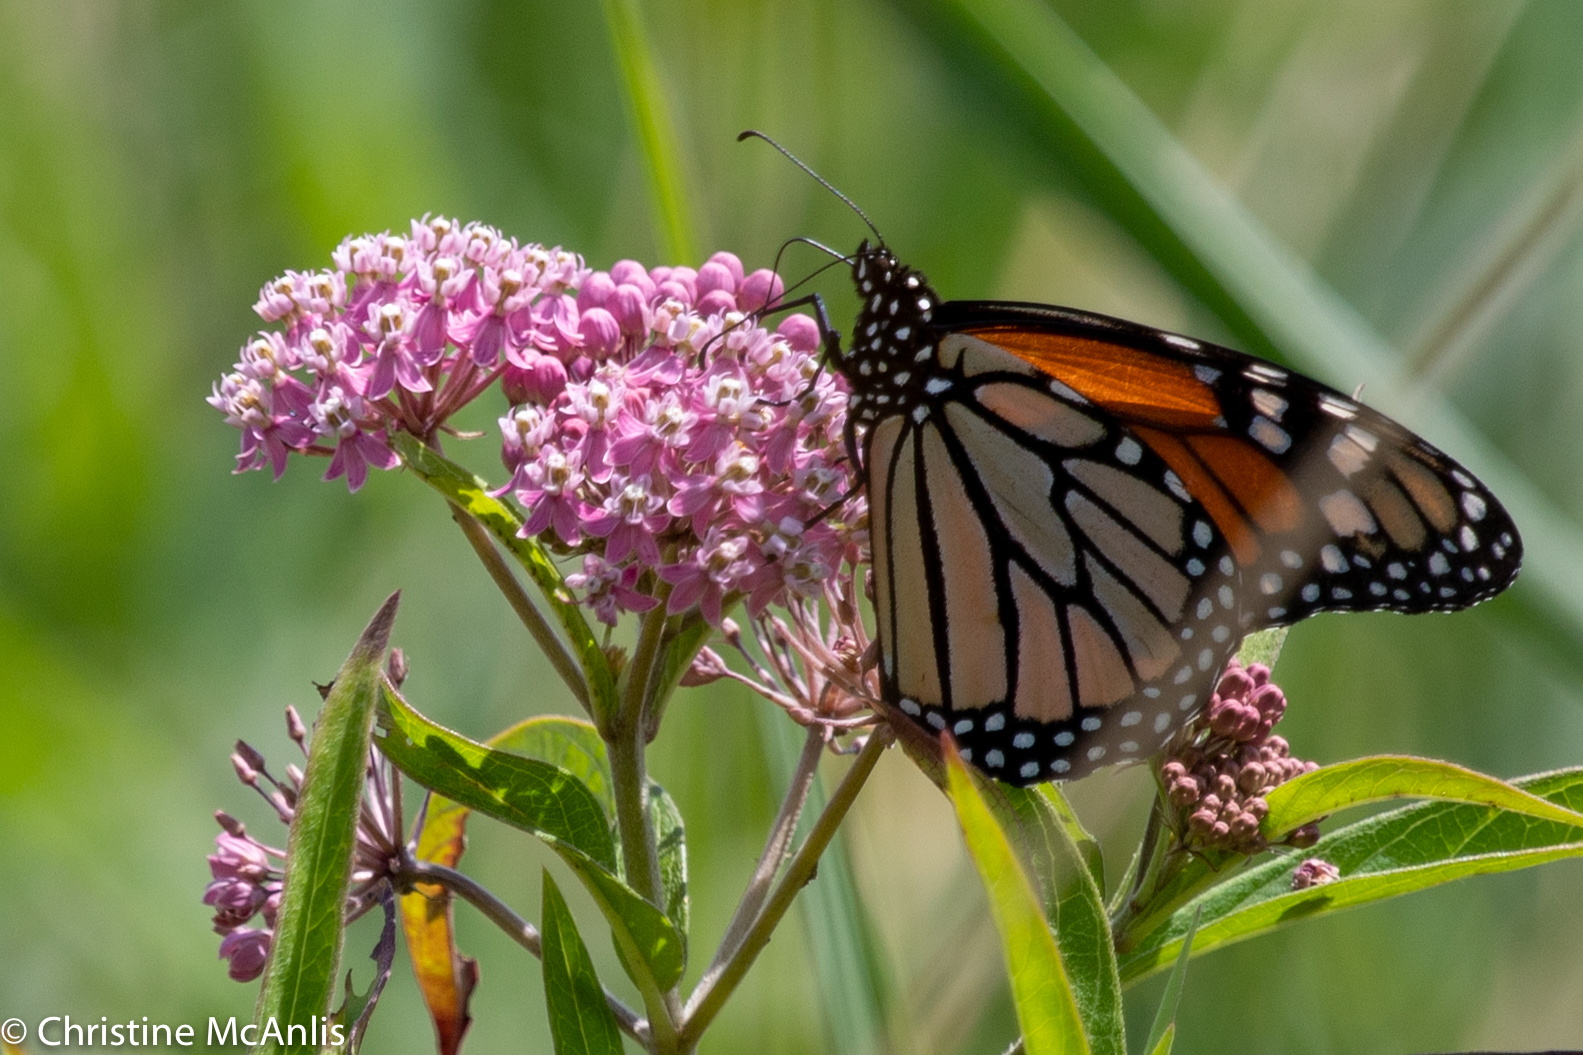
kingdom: Animalia
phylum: Arthropoda
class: Insecta
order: Lepidoptera
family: Nymphalidae
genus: Danaus
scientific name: Danaus plexippus
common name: Monarch
